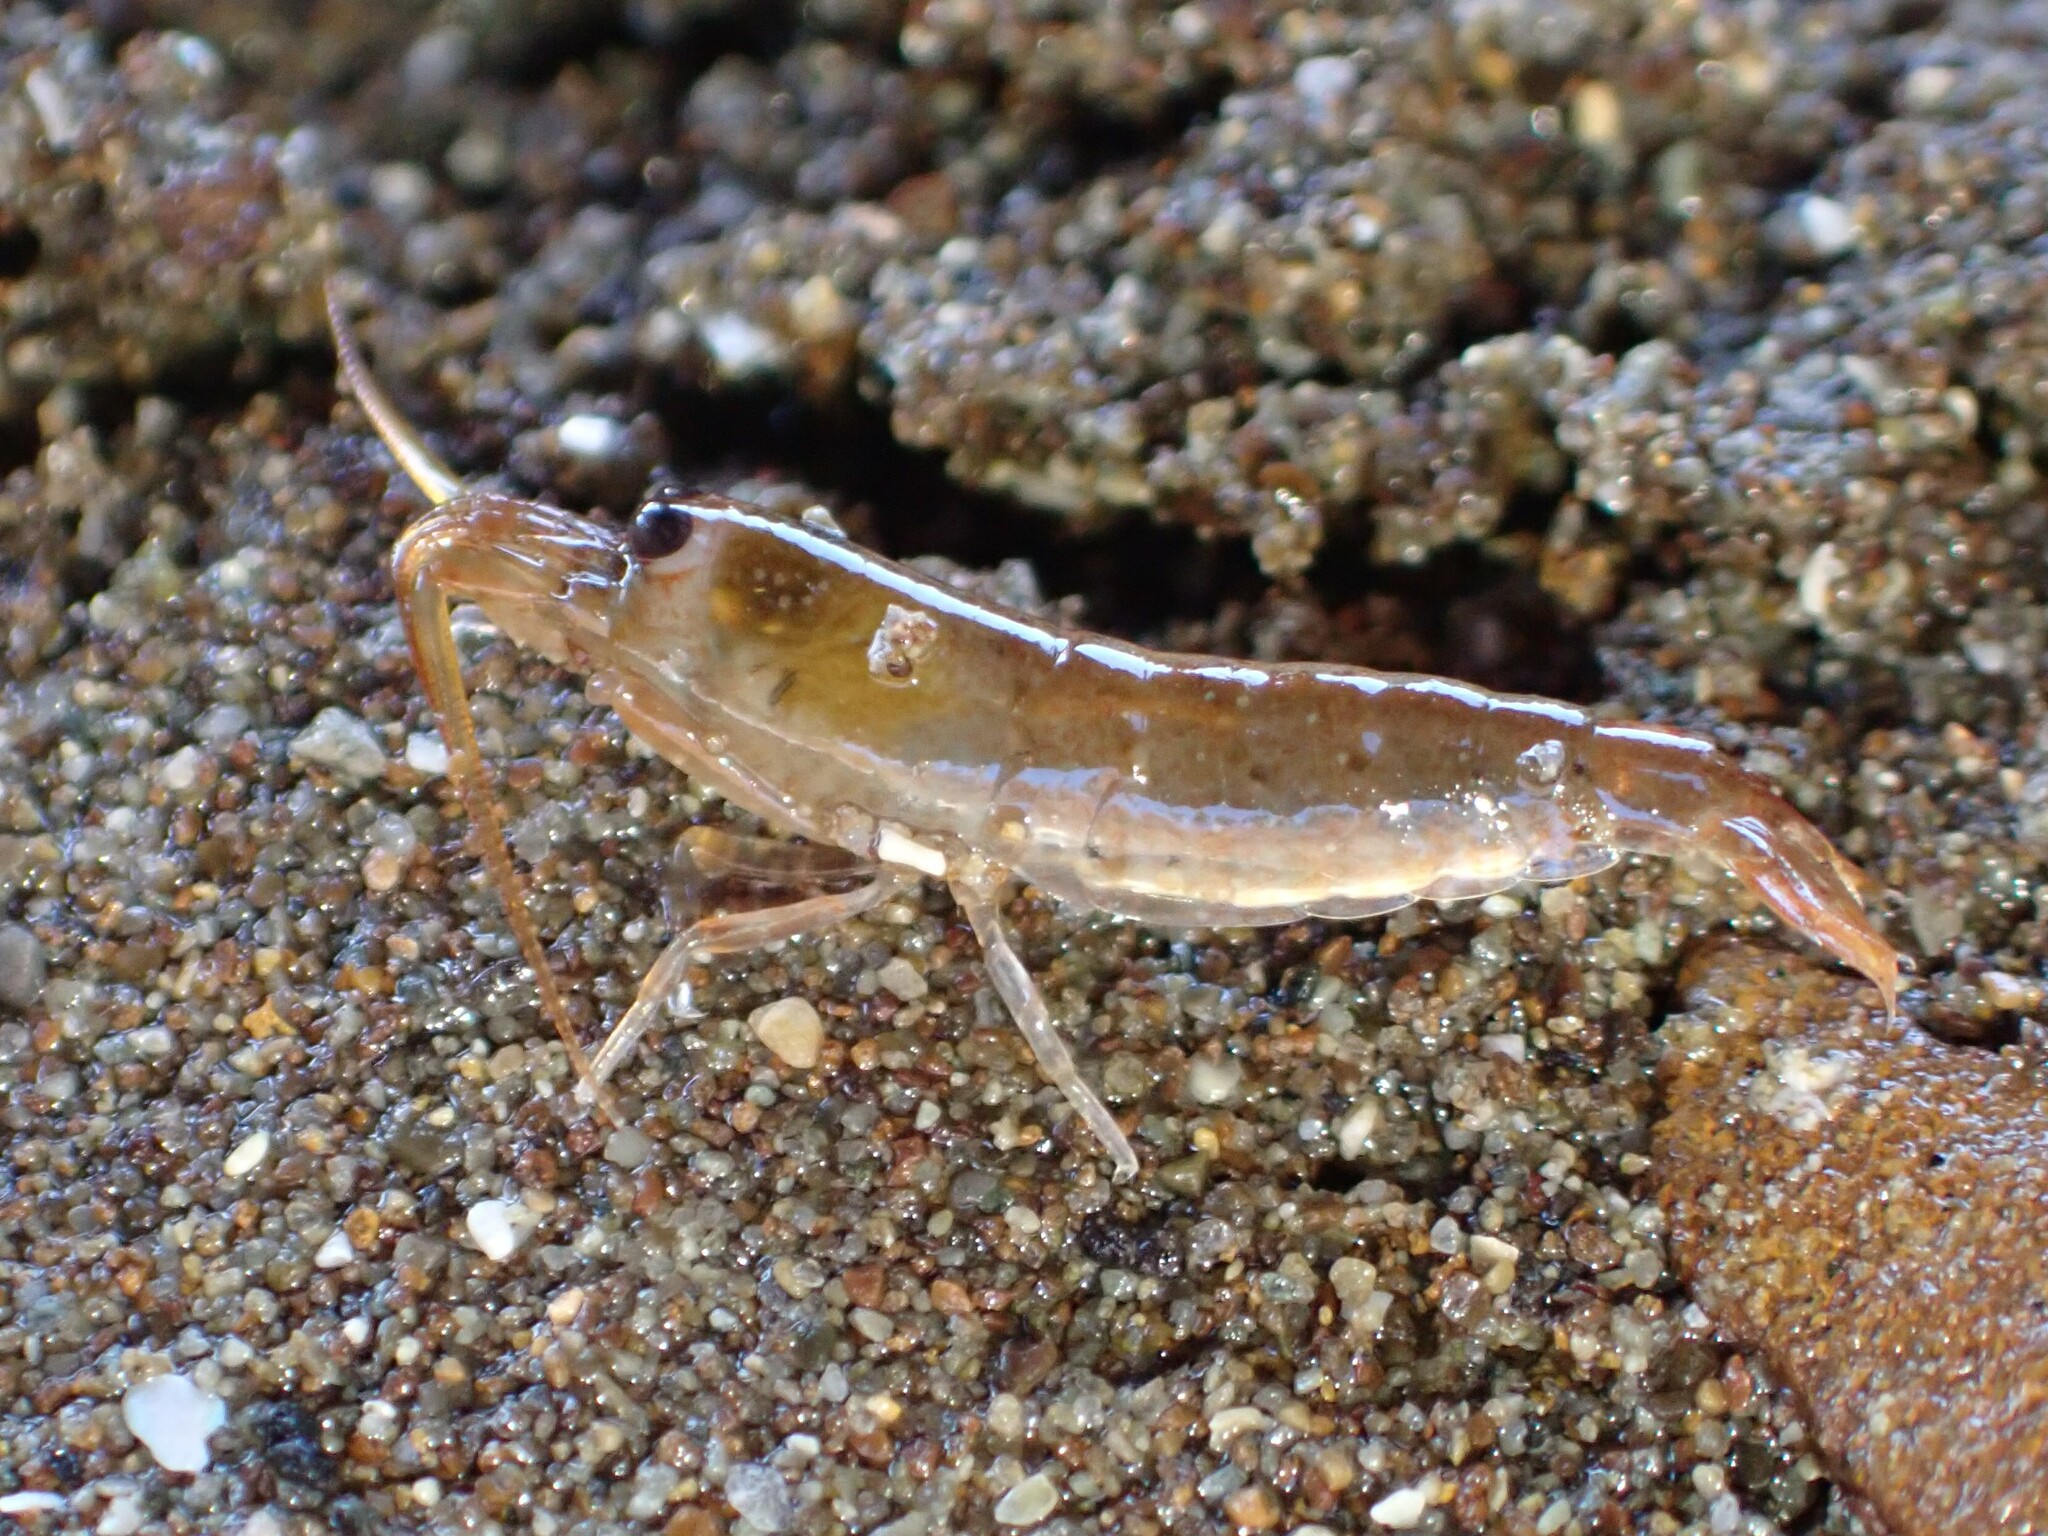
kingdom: Animalia
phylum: Arthropoda
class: Malacostraca
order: Decapoda
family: Alpheidae
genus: Betaeopsis
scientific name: Betaeopsis aequimanus
